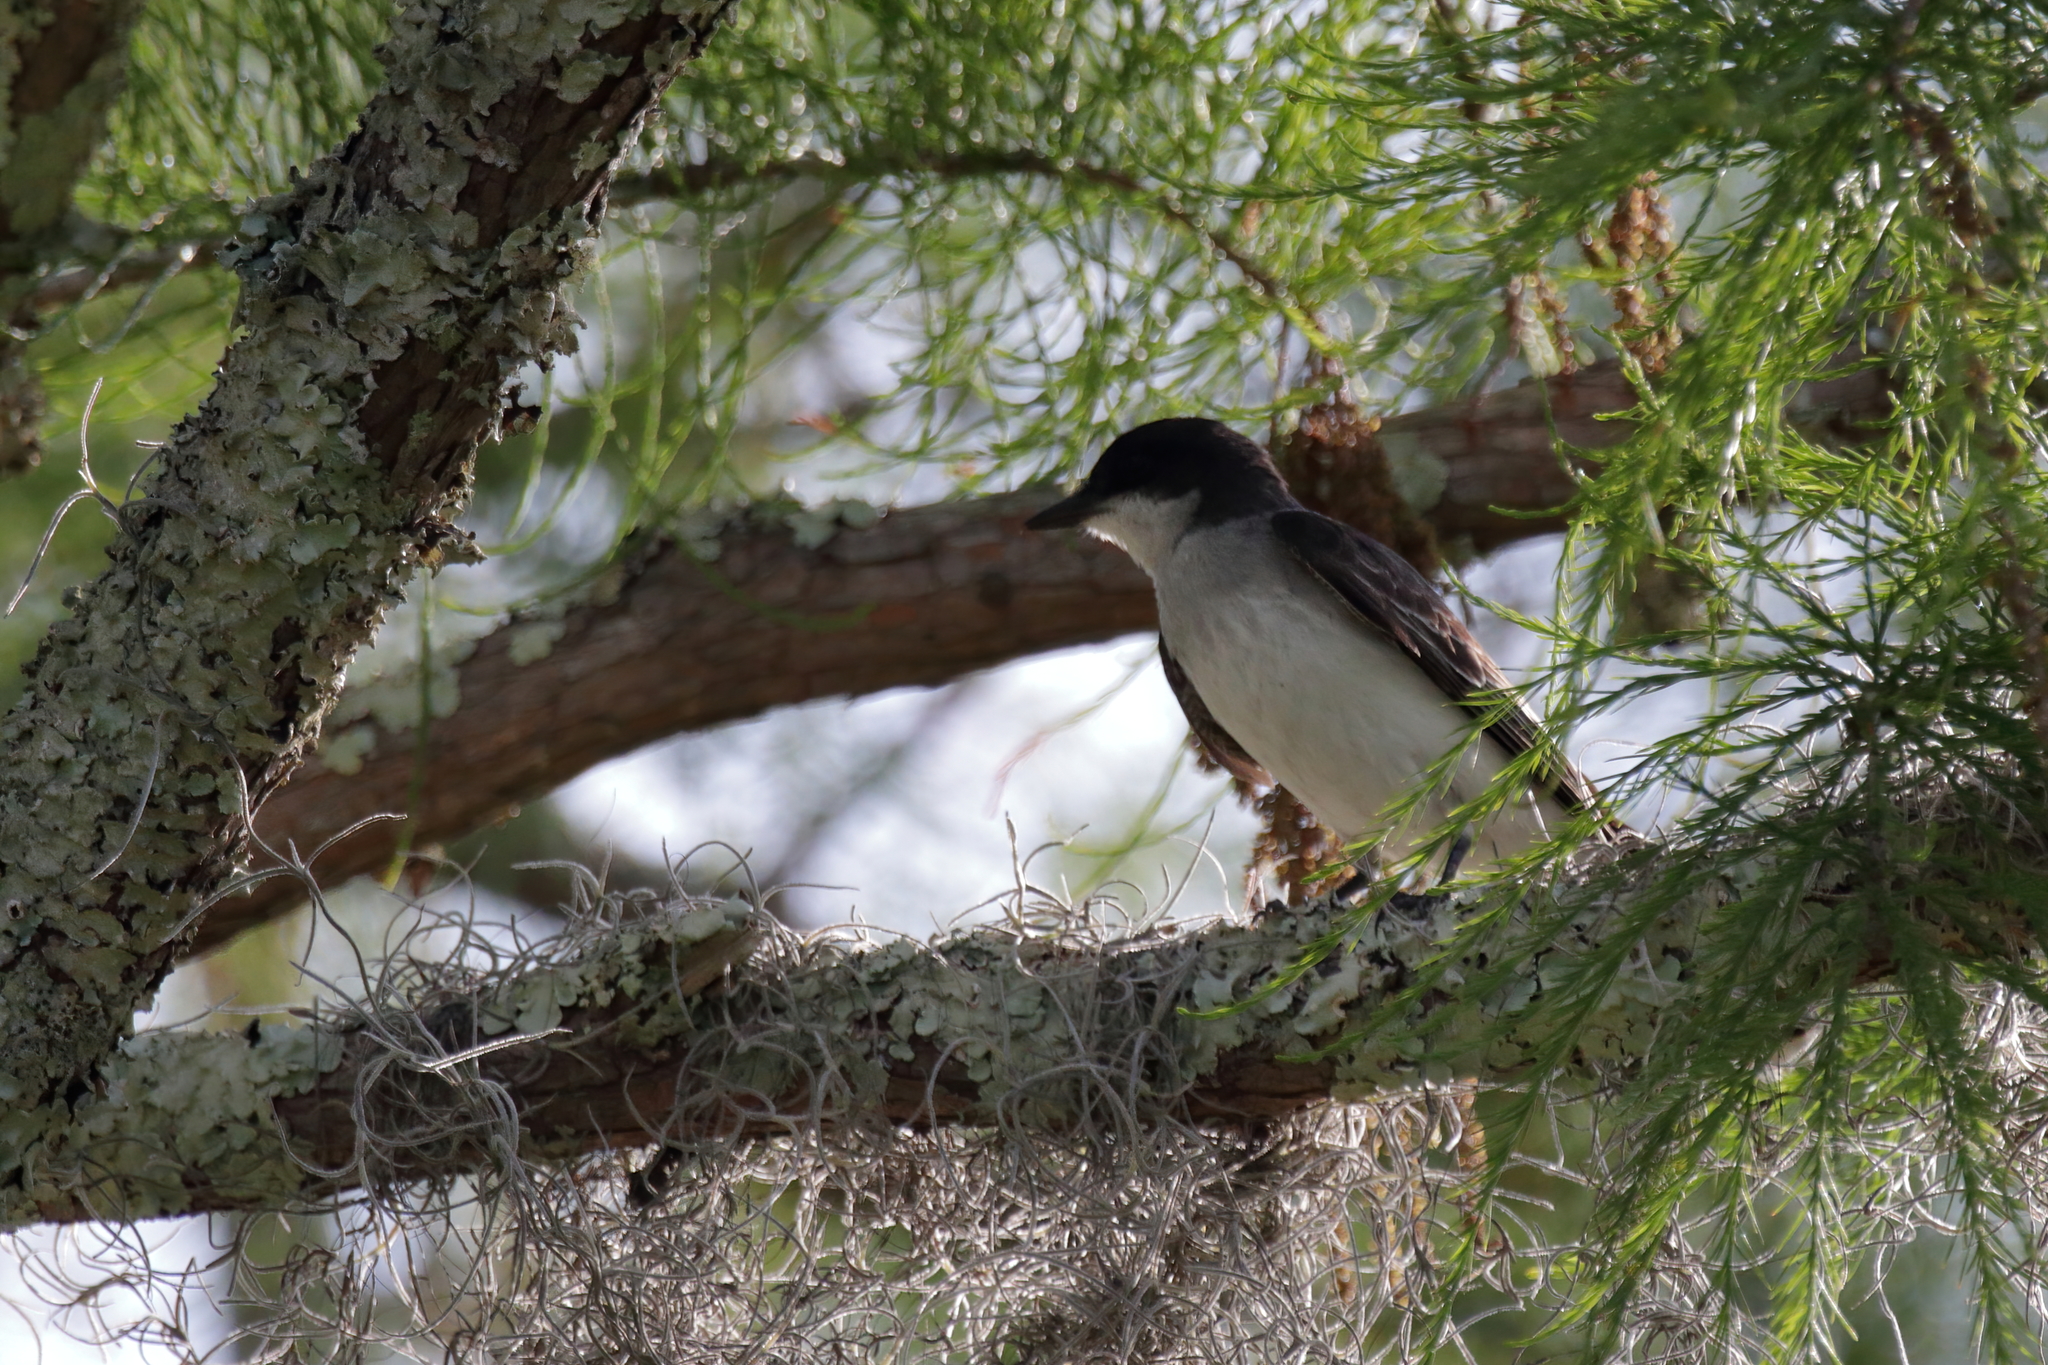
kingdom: Animalia
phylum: Chordata
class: Aves
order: Passeriformes
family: Tyrannidae
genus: Tyrannus
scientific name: Tyrannus tyrannus
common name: Eastern kingbird
